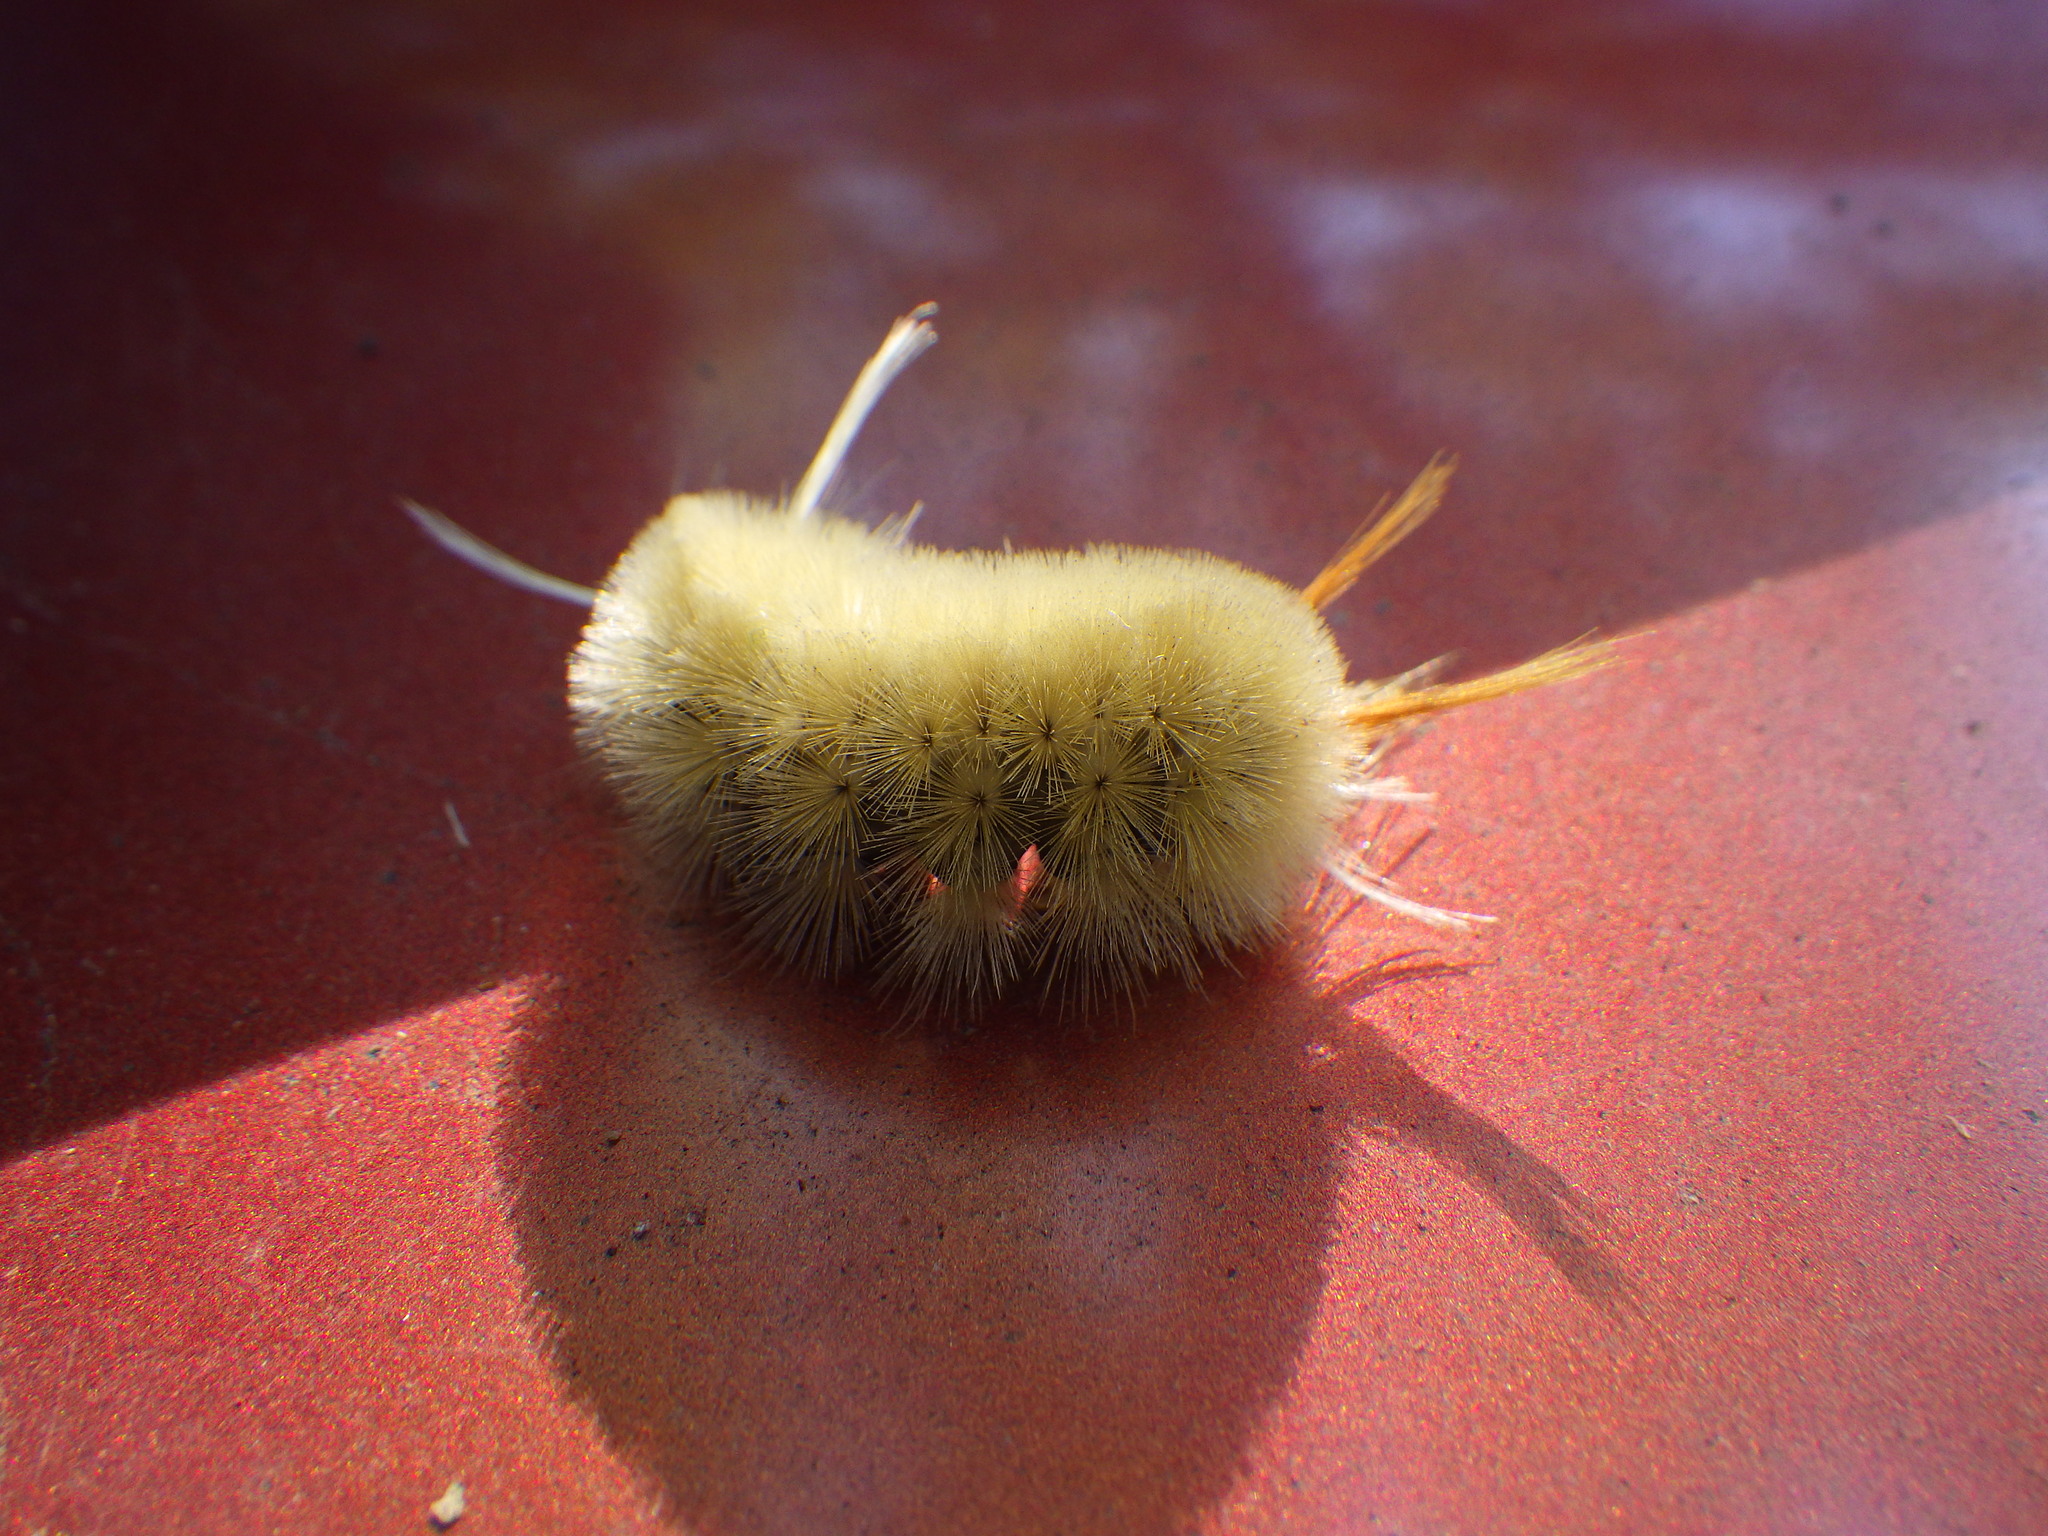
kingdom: Animalia
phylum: Arthropoda
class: Insecta
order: Lepidoptera
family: Erebidae
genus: Halysidota
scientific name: Halysidota harrisii
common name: Sycamore tussock moth
